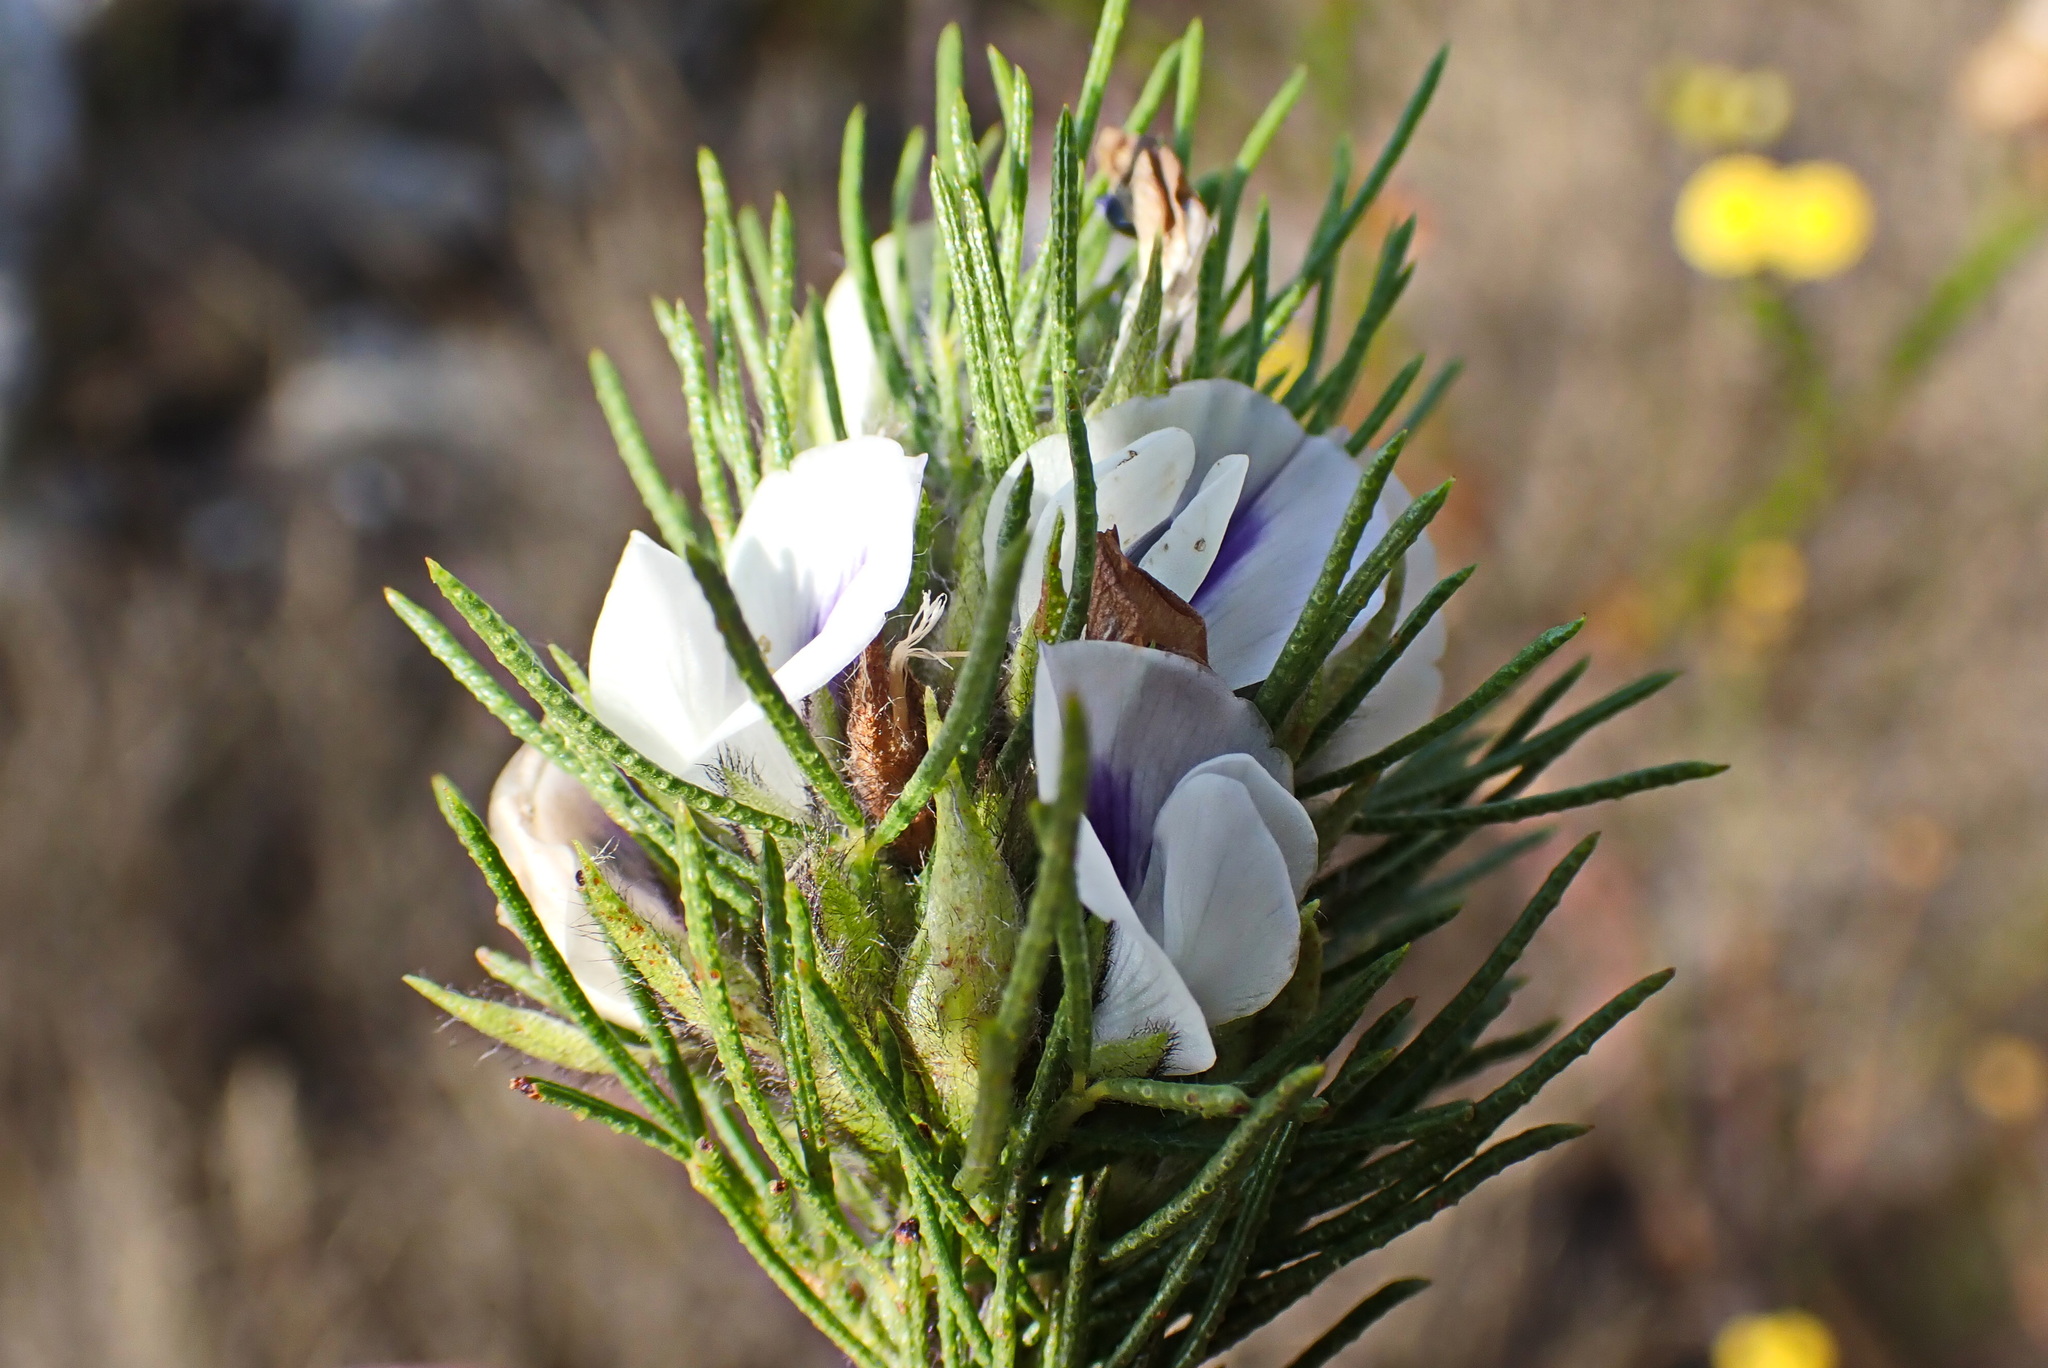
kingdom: Plantae
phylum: Tracheophyta
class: Magnoliopsida
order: Fabales
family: Fabaceae
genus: Psoralea
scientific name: Psoralea floccosa
